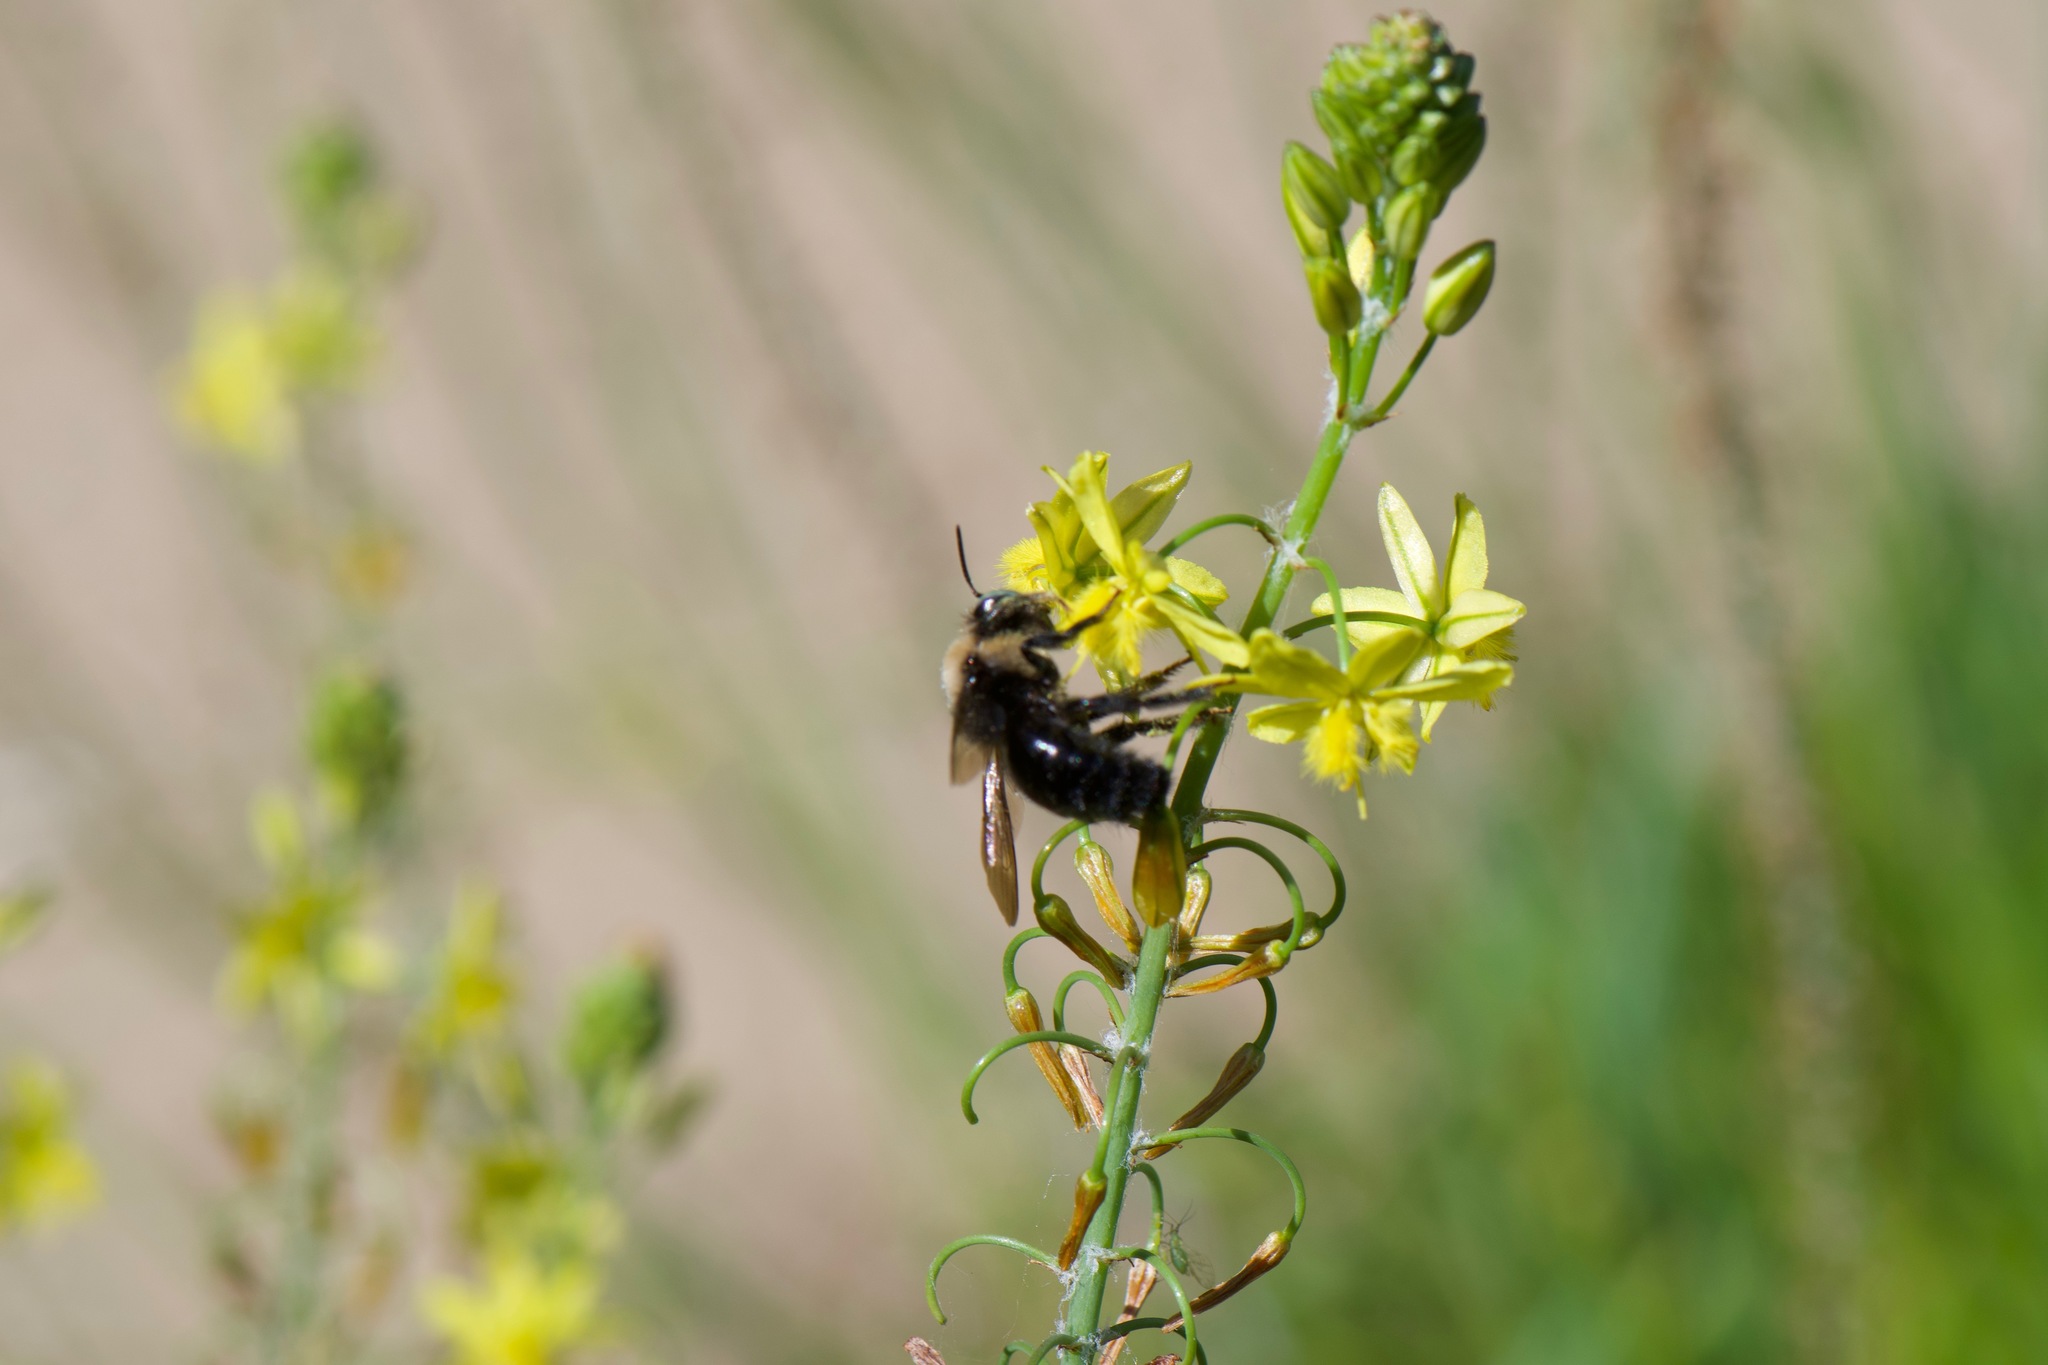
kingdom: Animalia
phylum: Arthropoda
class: Insecta
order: Hymenoptera
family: Apidae
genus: Xylocopa
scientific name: Xylocopa tabaniformis
